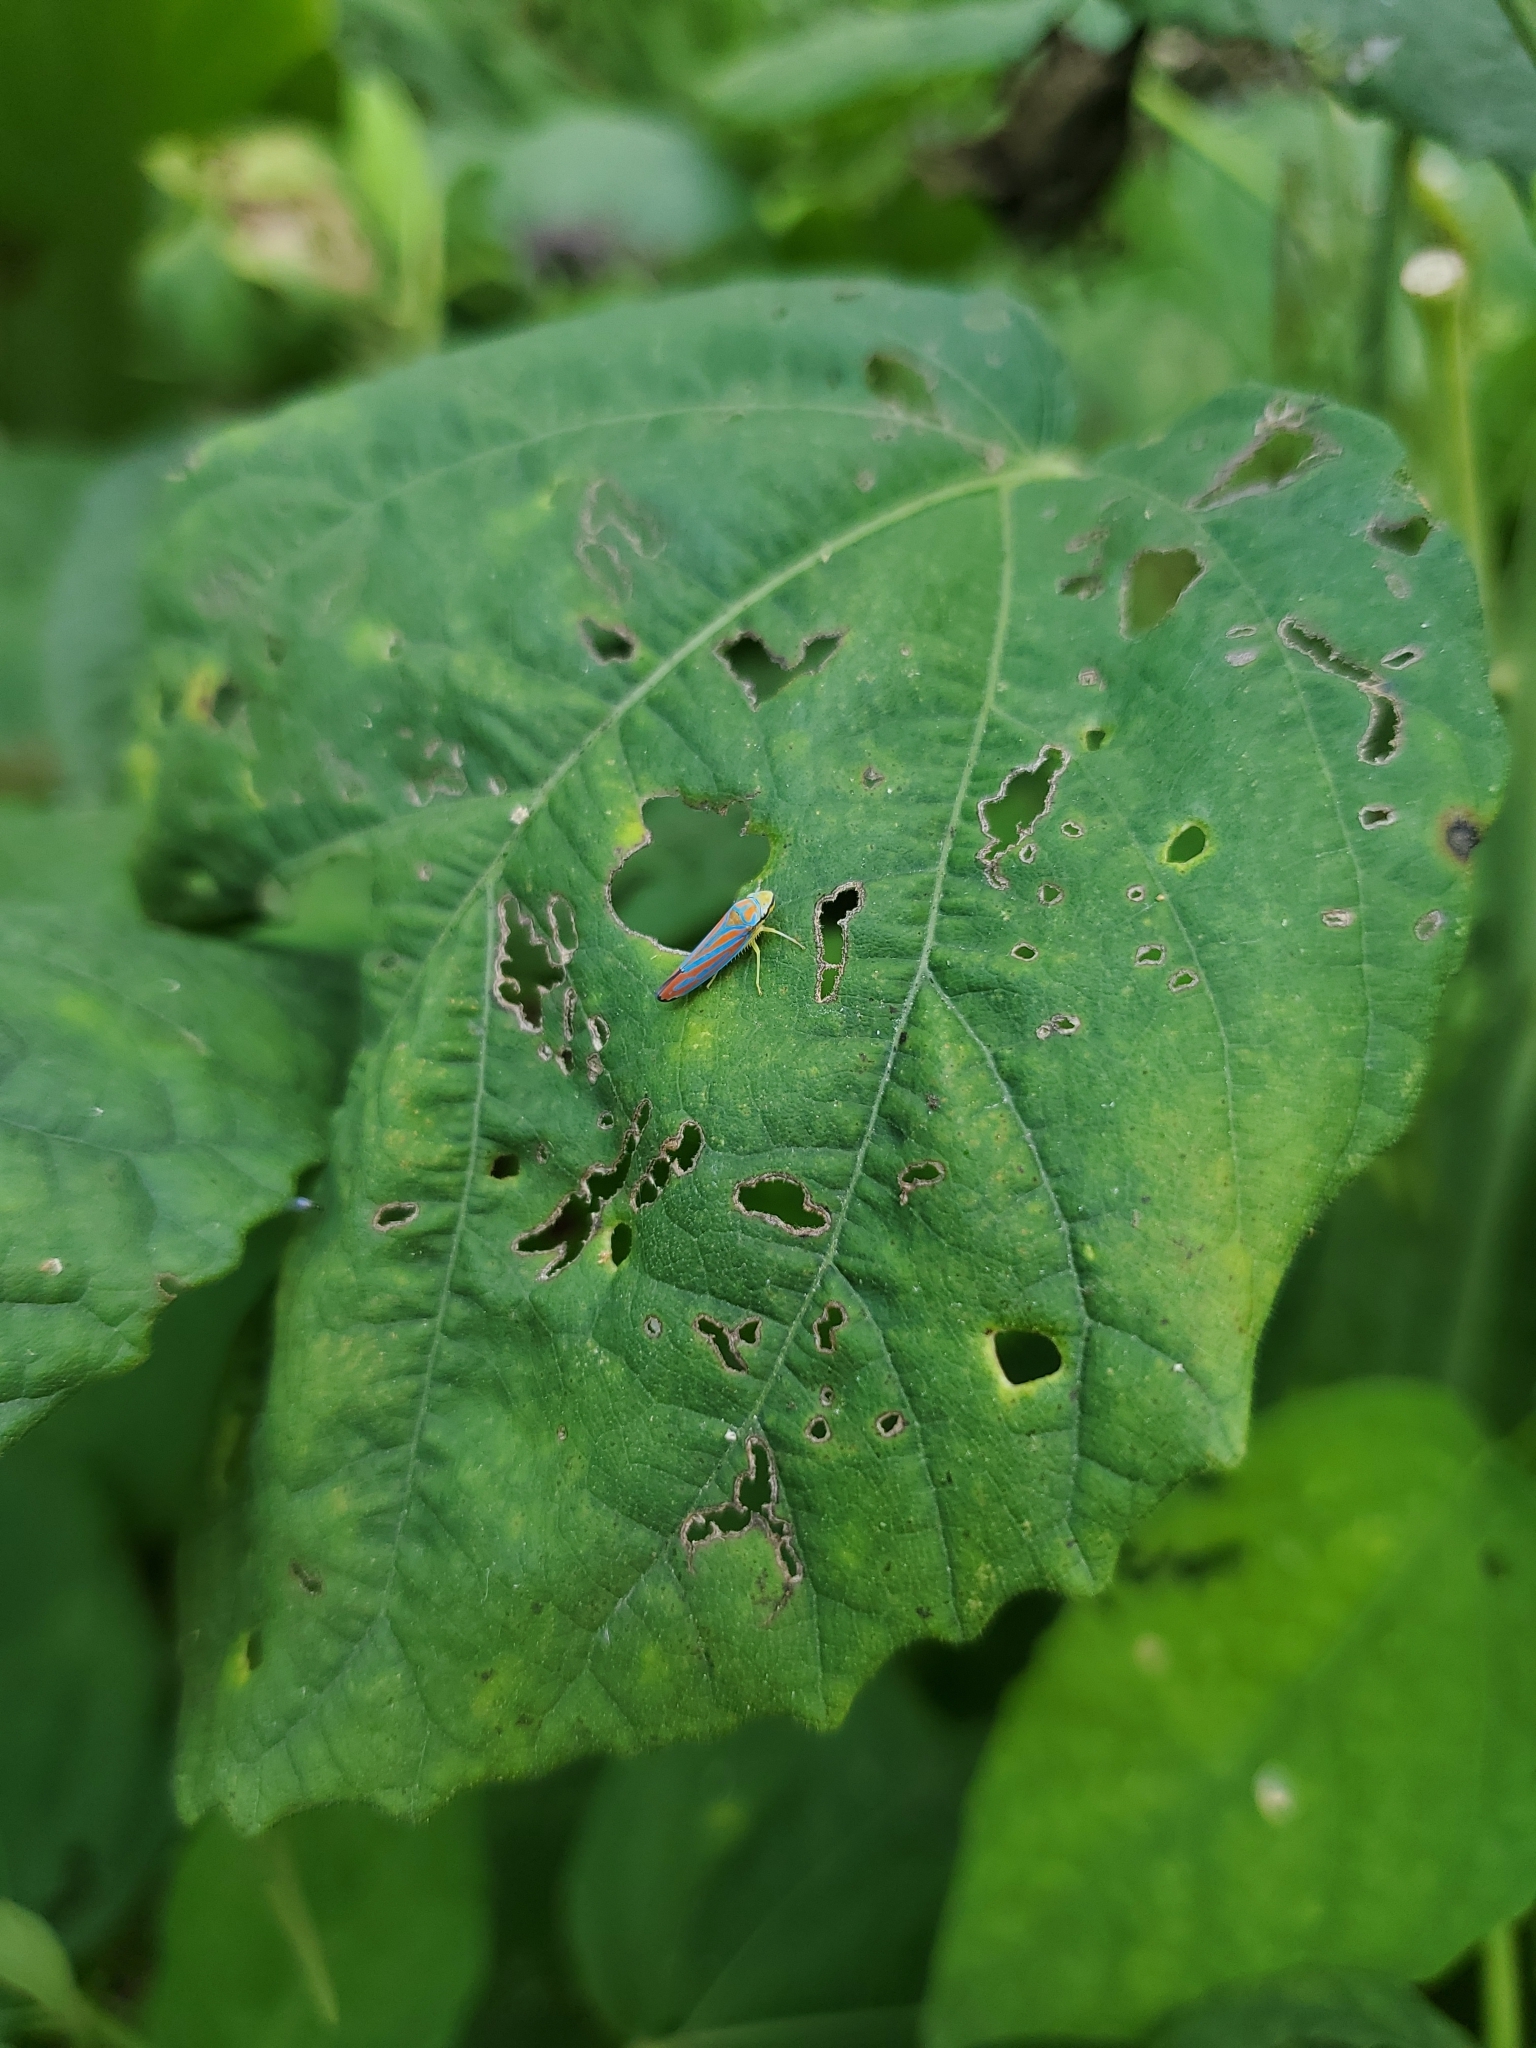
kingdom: Animalia
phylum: Arthropoda
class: Insecta
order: Hemiptera
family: Cicadellidae
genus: Graphocephala
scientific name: Graphocephala coccinea
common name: Candy-striped leafhopper
